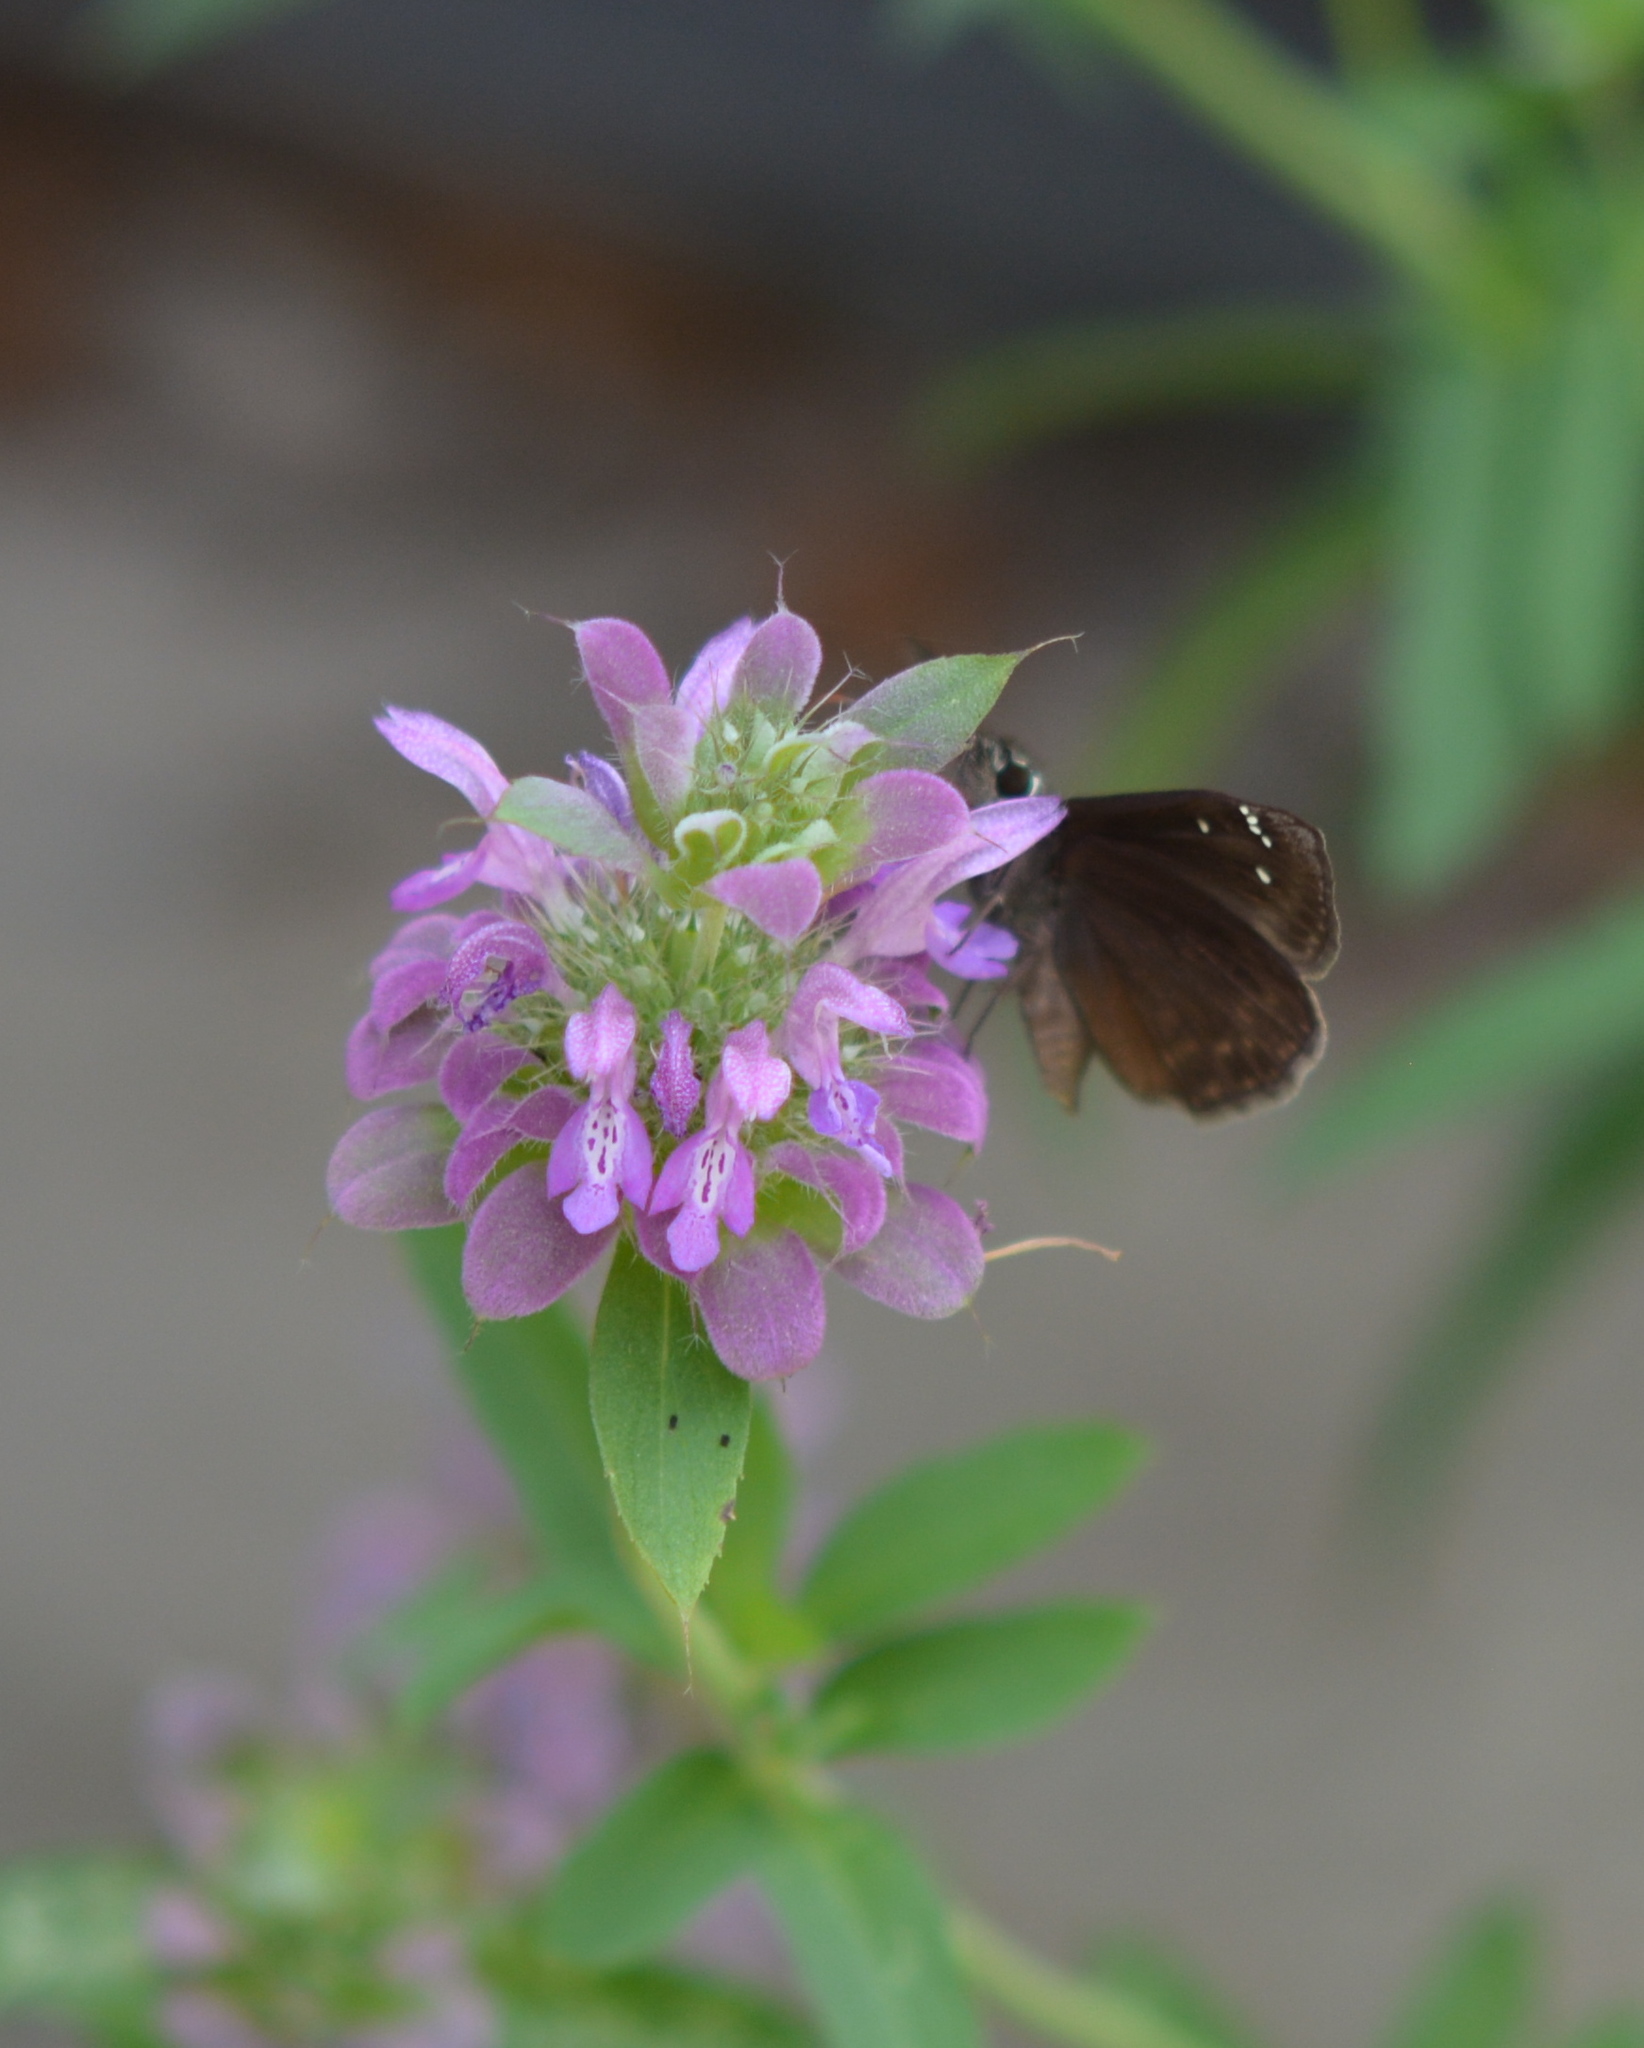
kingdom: Animalia
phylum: Arthropoda
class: Insecta
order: Lepidoptera
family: Hesperiidae
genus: Erynnis
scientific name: Erynnis horatius
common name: Horace's duskywing
